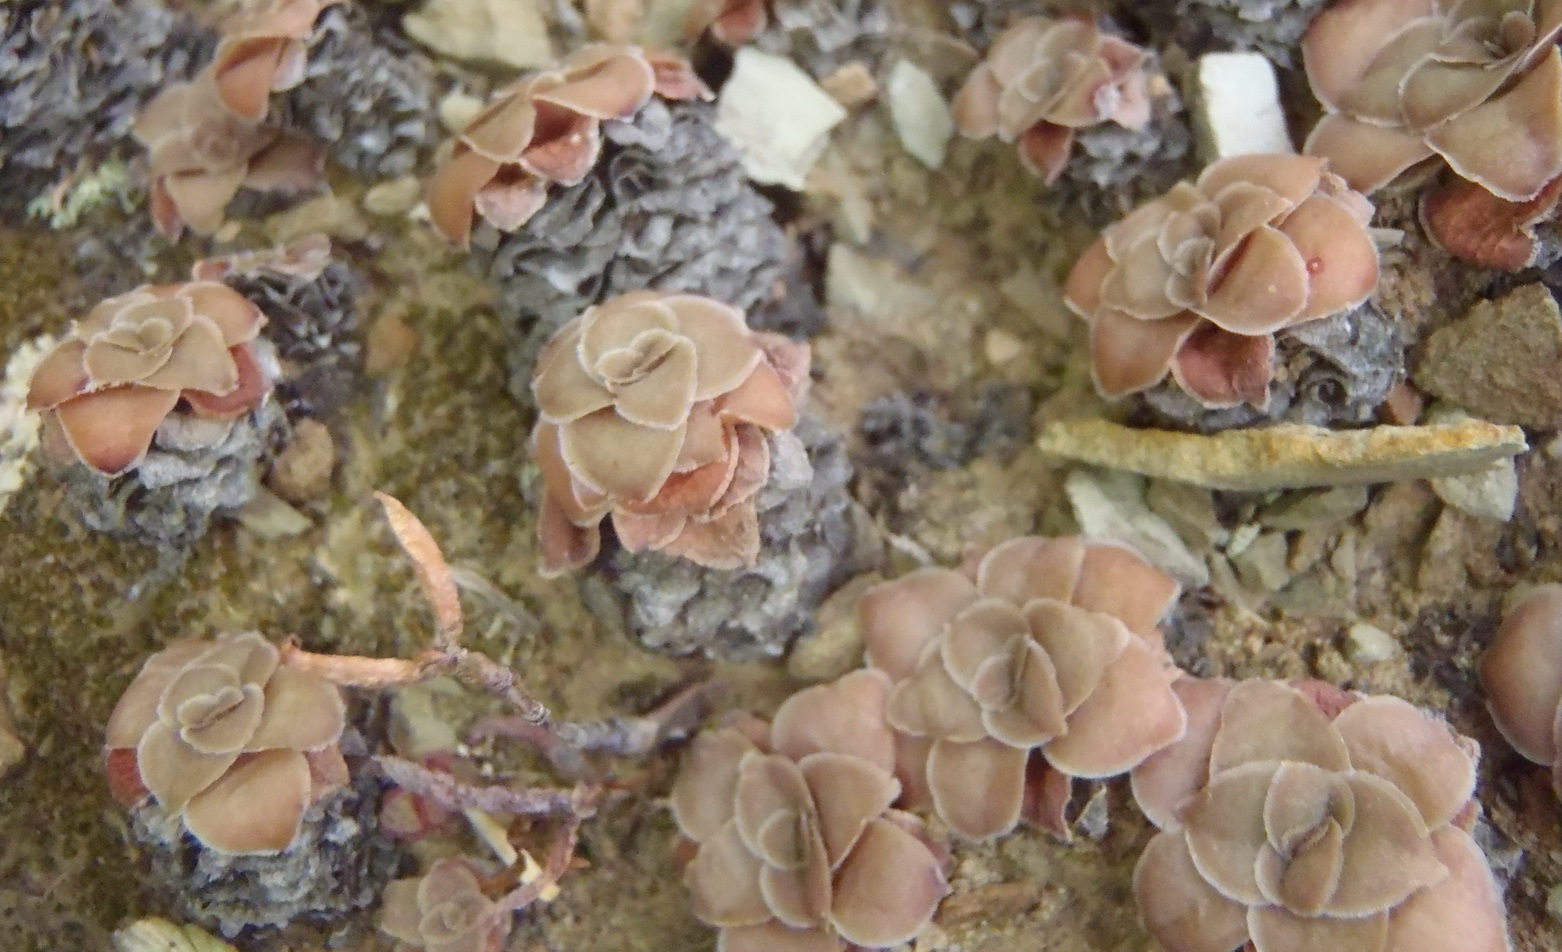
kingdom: Plantae
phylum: Tracheophyta
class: Magnoliopsida
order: Saxifragales
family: Crassulaceae
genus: Crassula
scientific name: Crassula orbicularis
